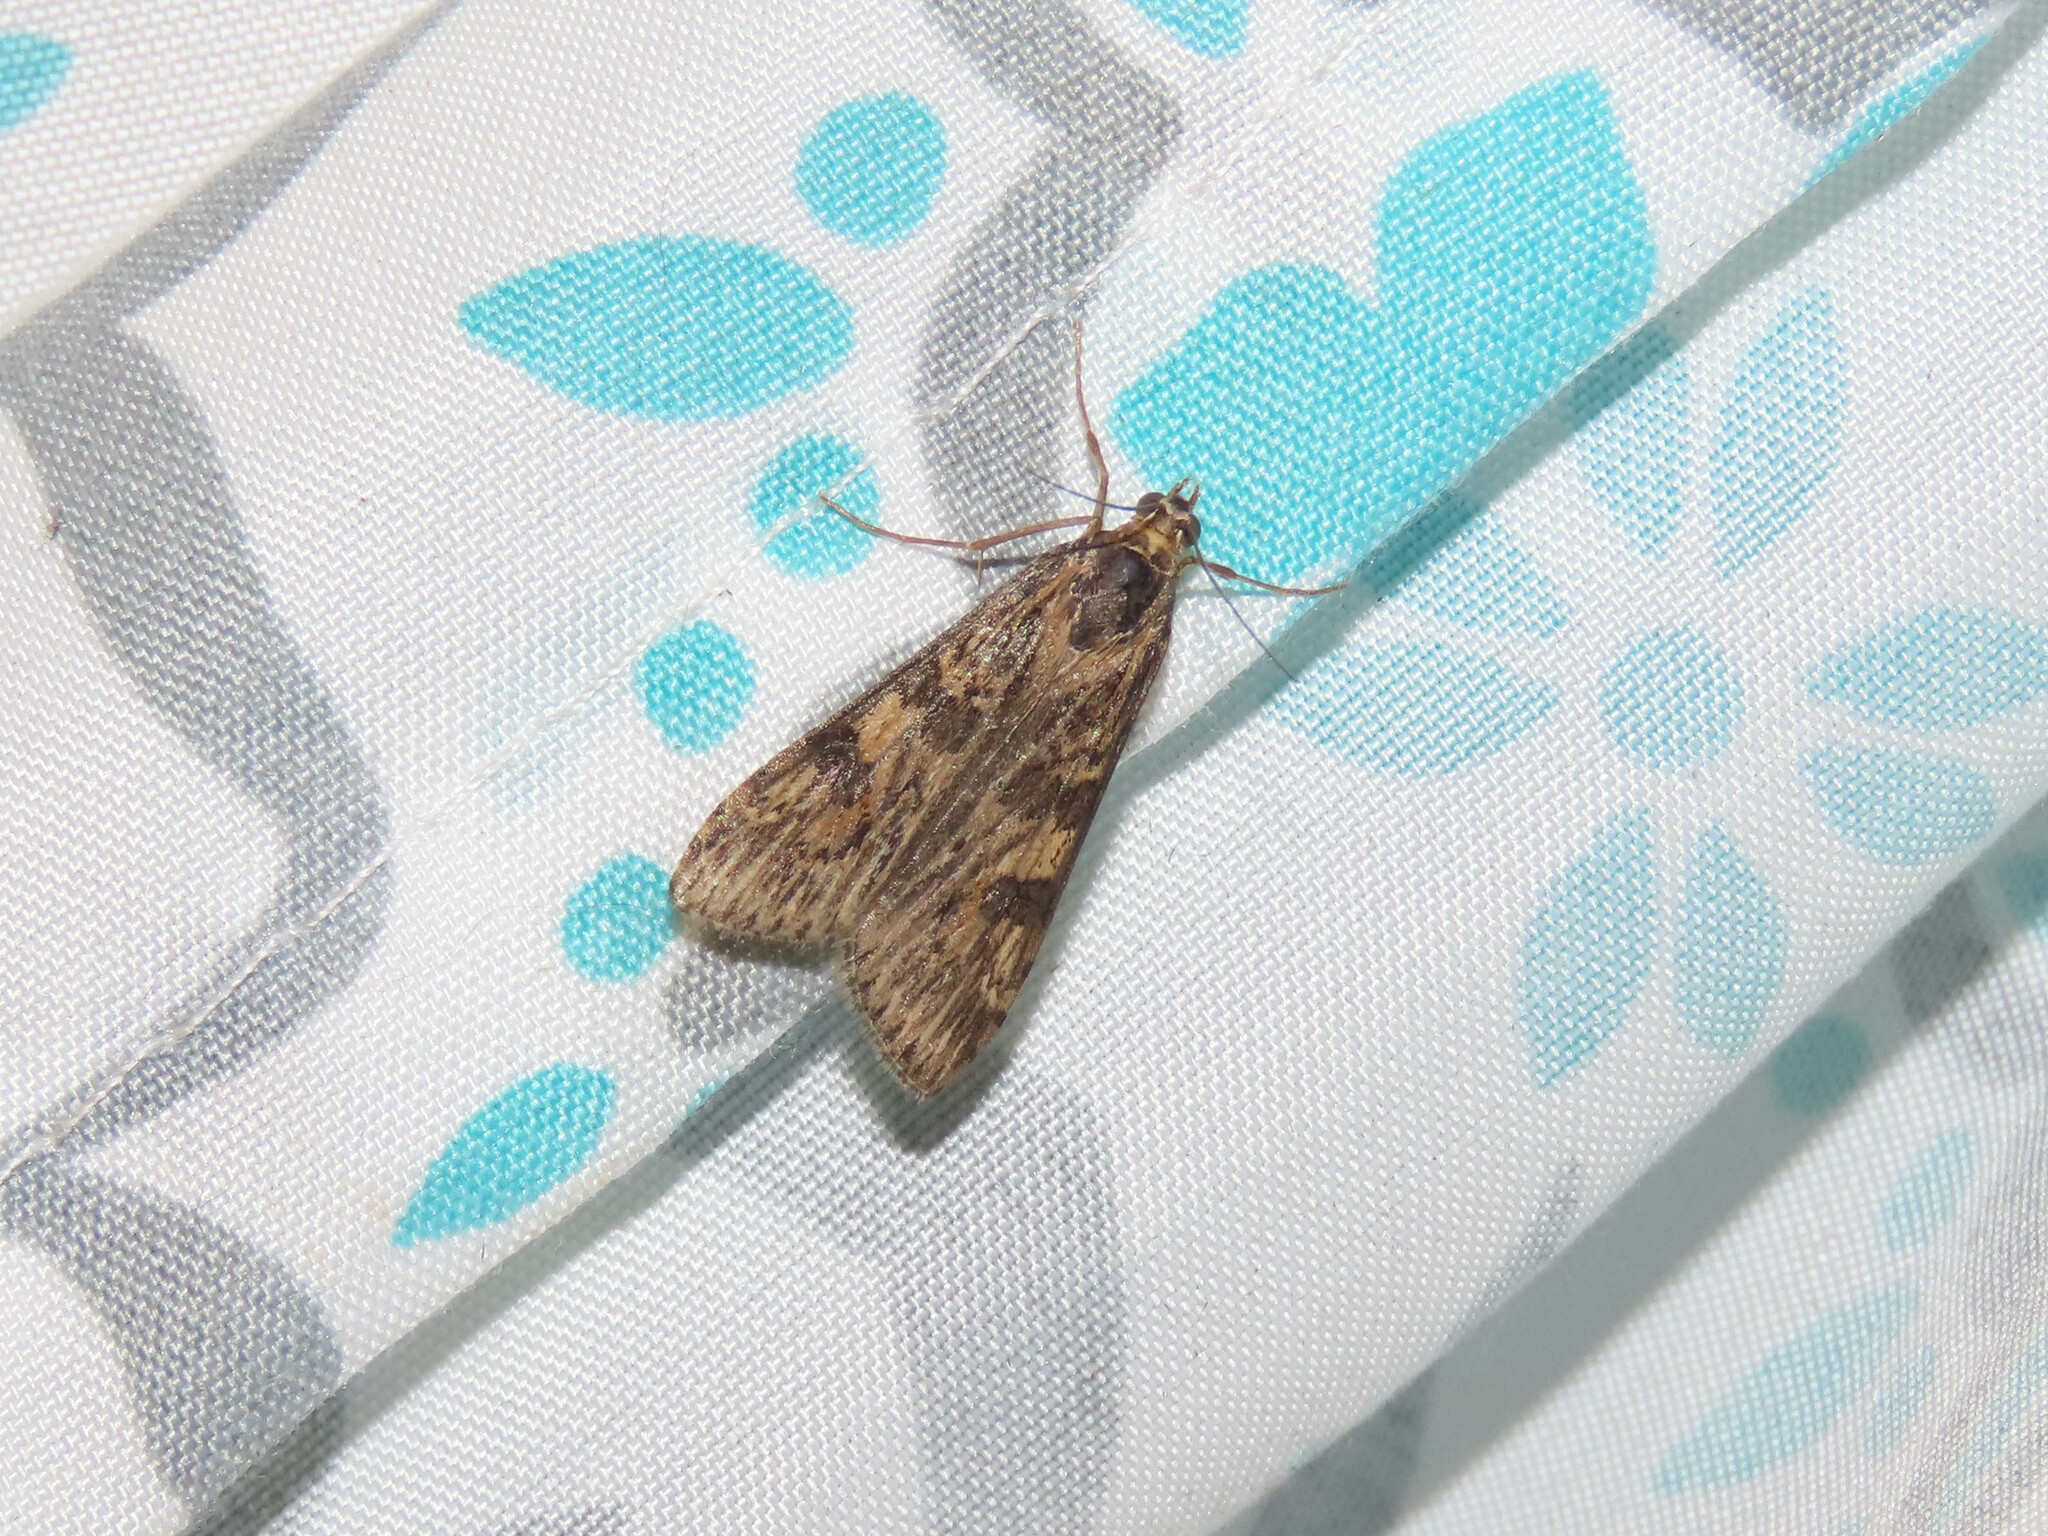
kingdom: Animalia
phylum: Arthropoda
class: Insecta
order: Lepidoptera
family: Crambidae
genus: Nomophila
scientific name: Nomophila nearctica
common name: American rush veneer
